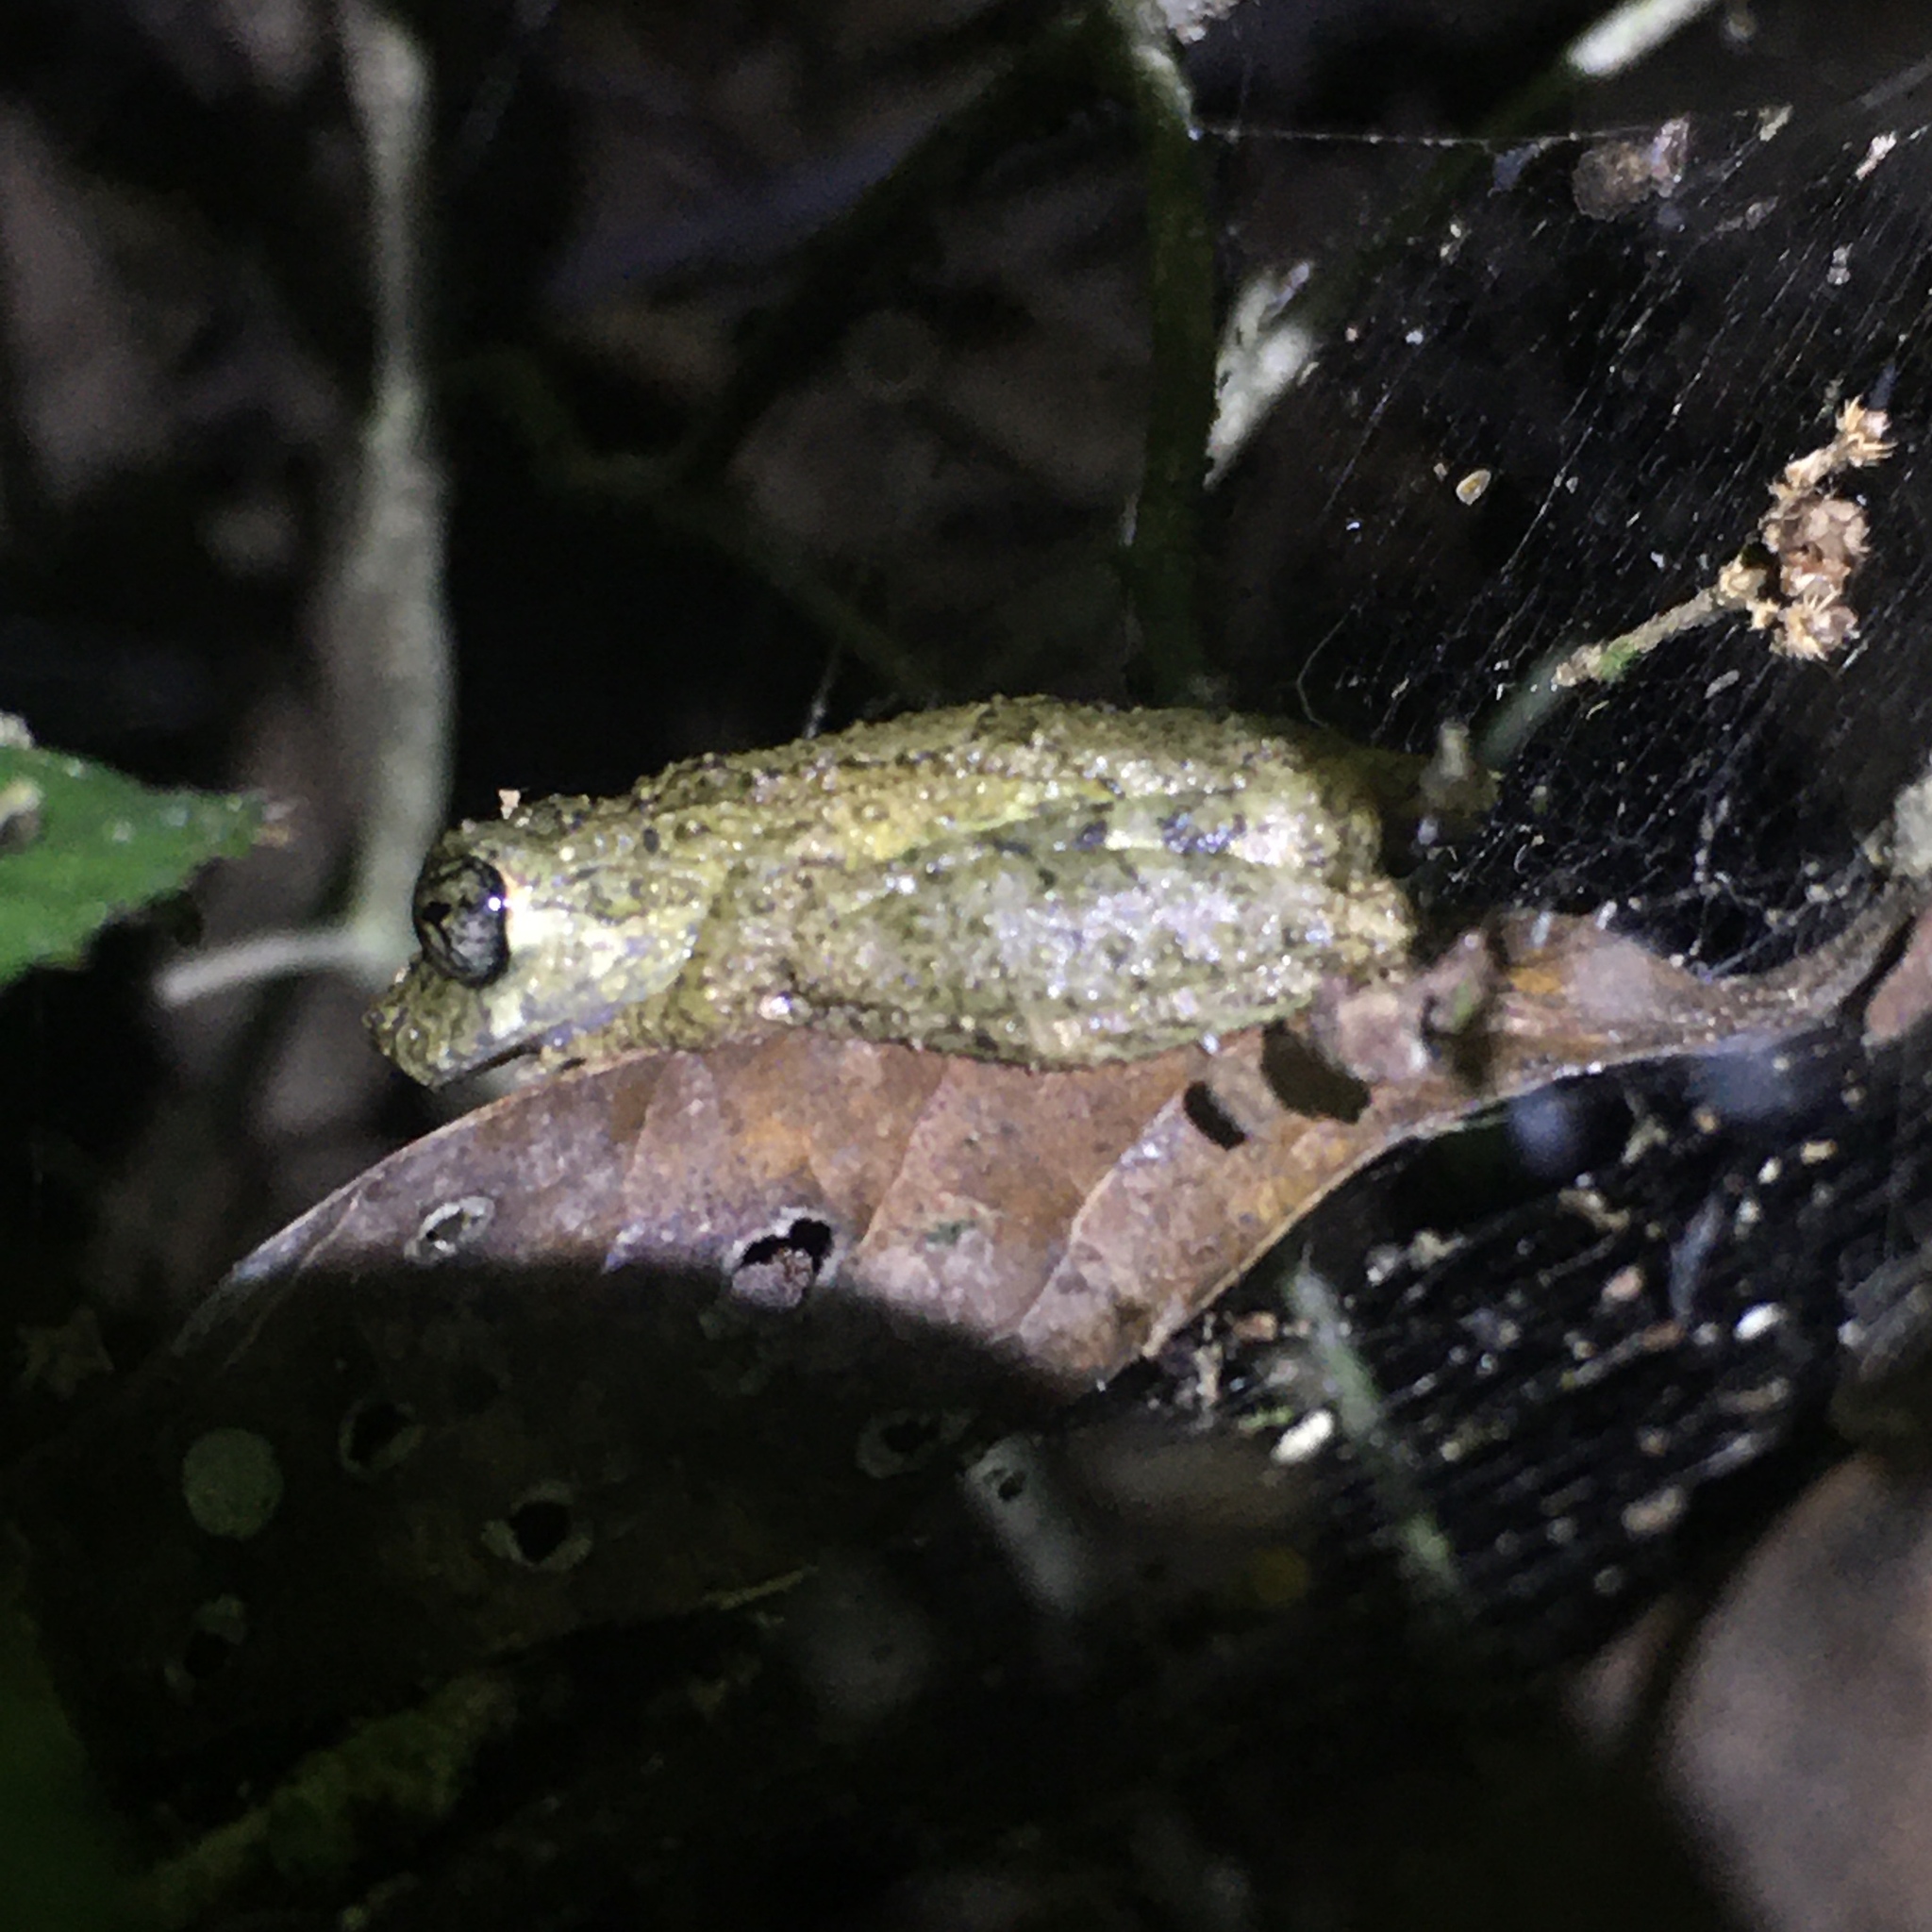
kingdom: Animalia
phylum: Chordata
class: Amphibia
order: Anura
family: Hylidae
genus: Ololygon
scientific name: Ololygon muriciensis
